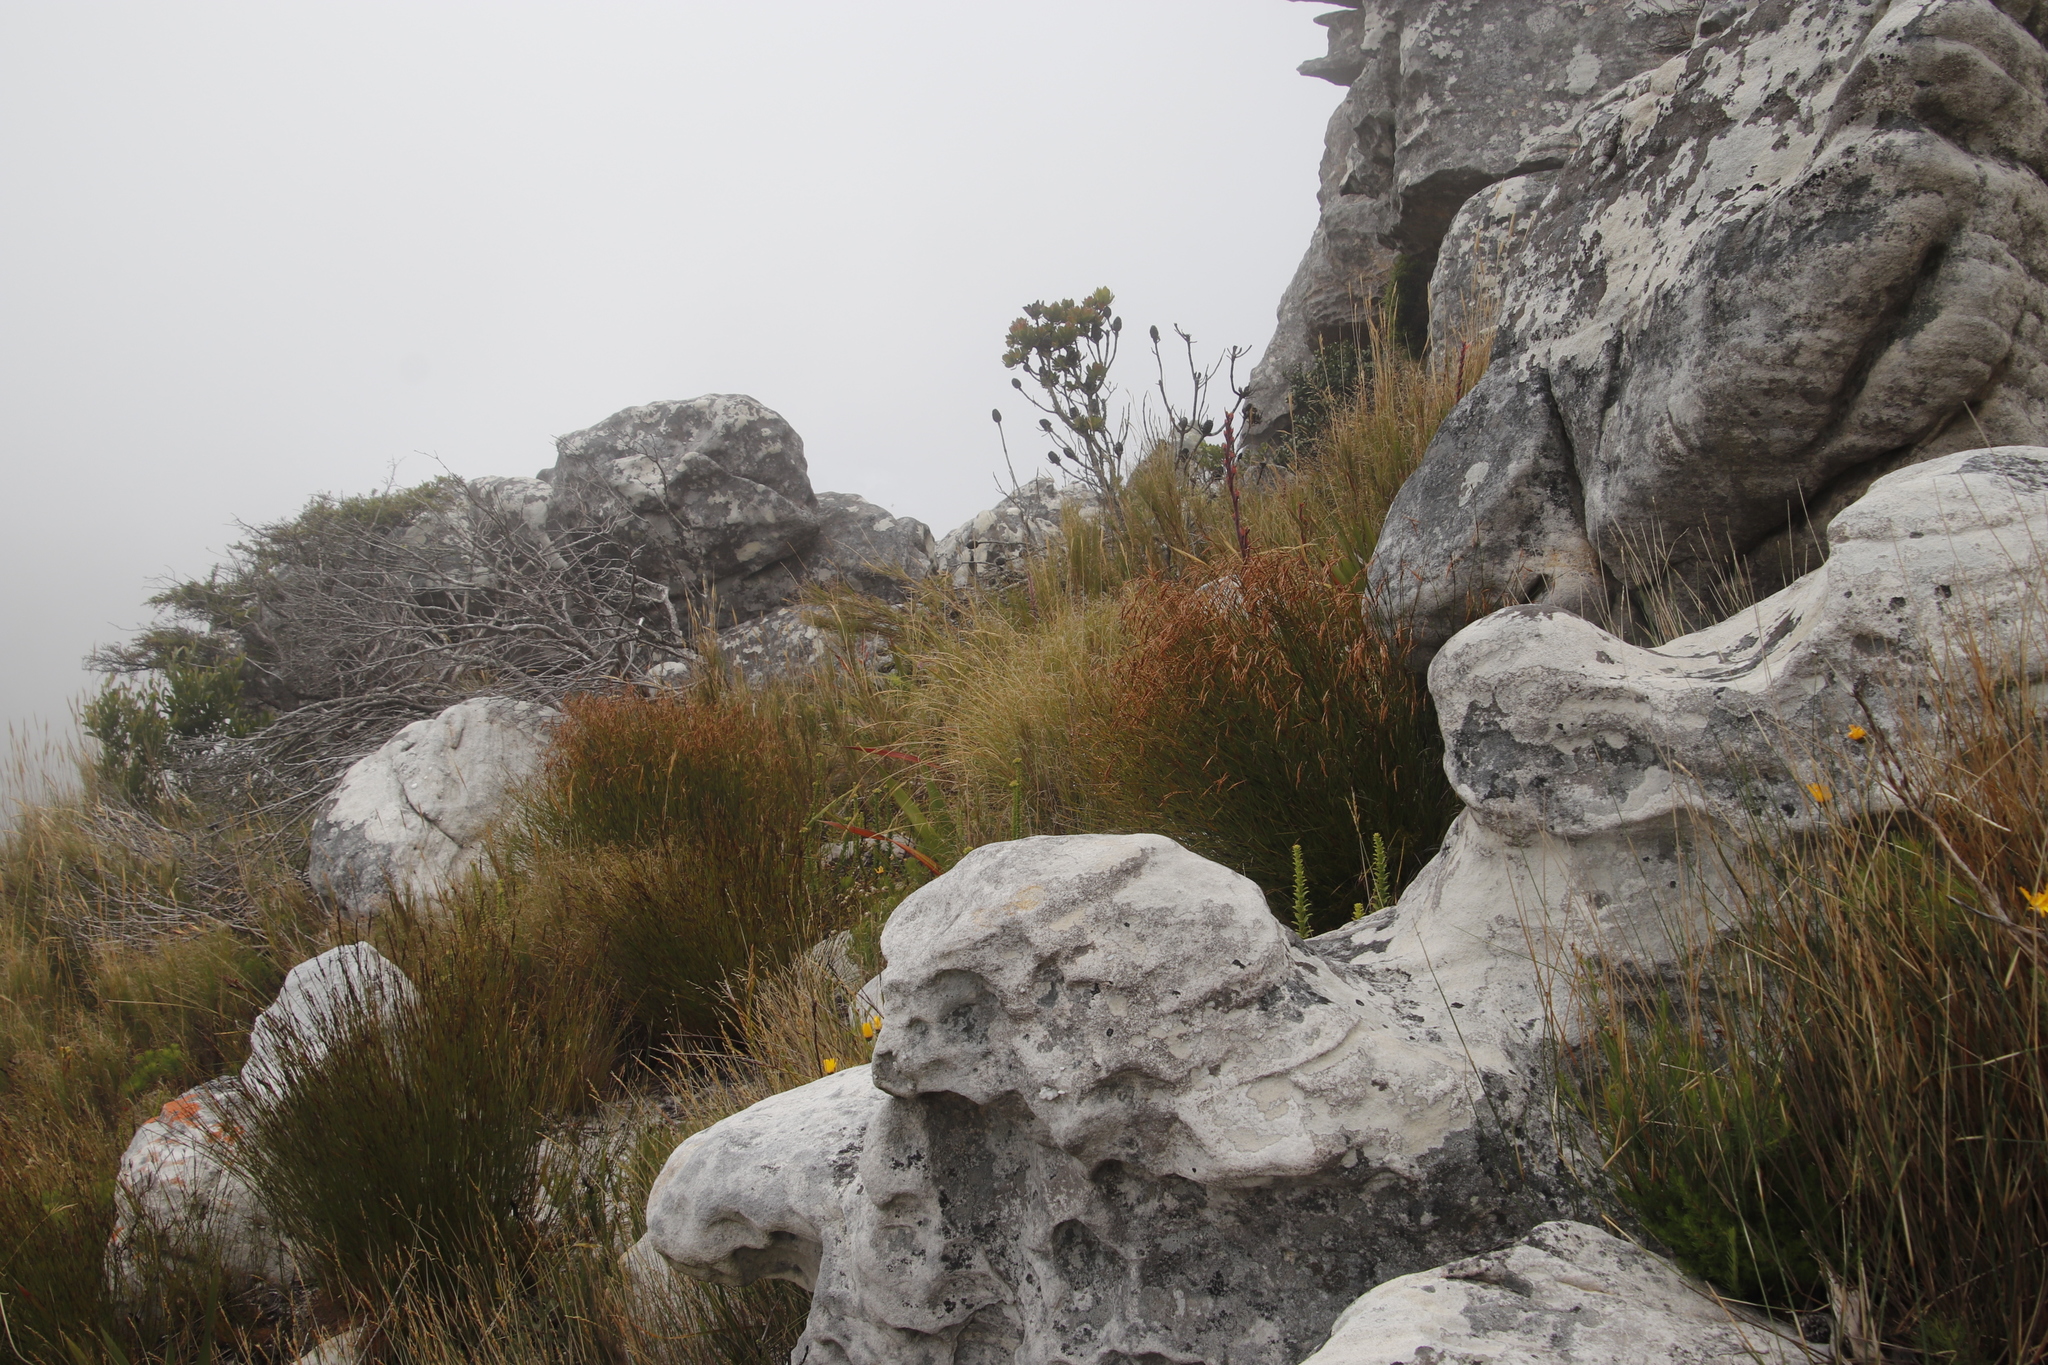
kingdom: Plantae
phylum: Tracheophyta
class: Magnoliopsida
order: Proteales
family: Proteaceae
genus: Leucadendron
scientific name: Leucadendron strobilinum
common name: Mountain rose
